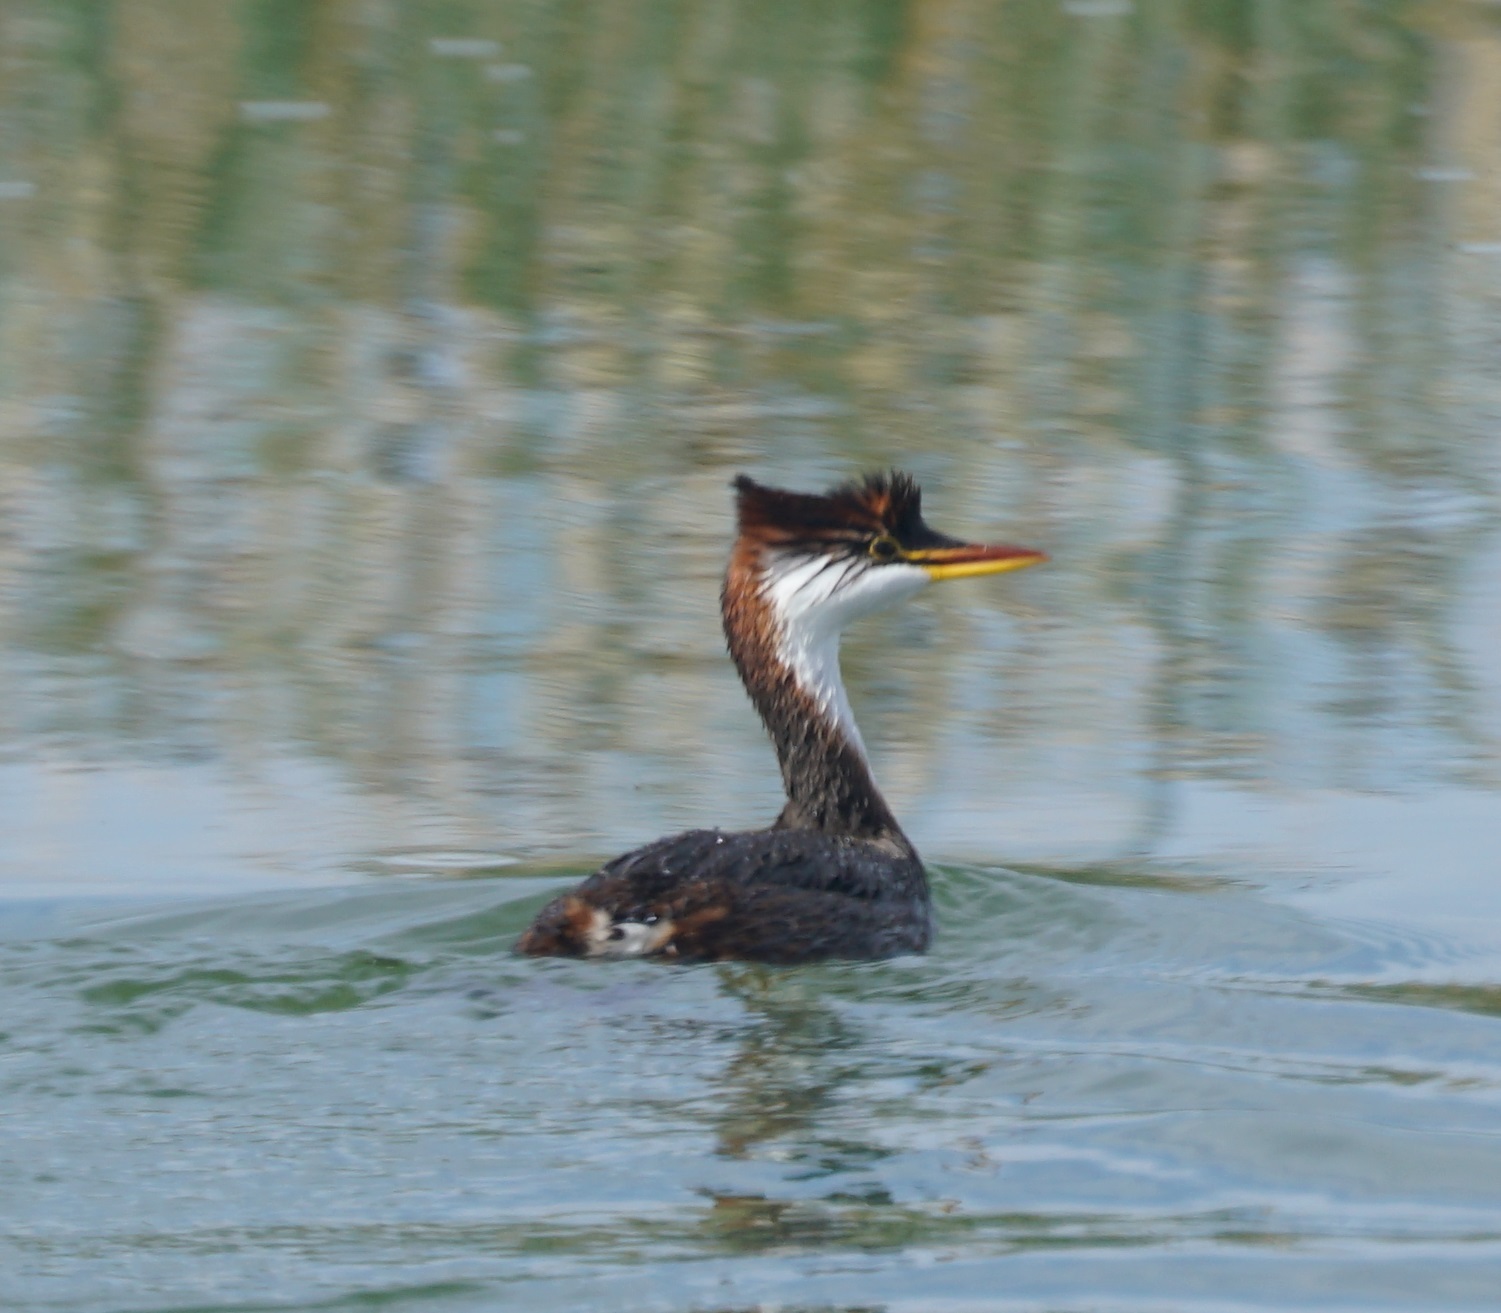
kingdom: Animalia
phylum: Chordata
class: Aves
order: Podicipediformes
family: Podicipedidae
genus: Rollandia
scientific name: Rollandia microptera
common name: Titicaca grebe
